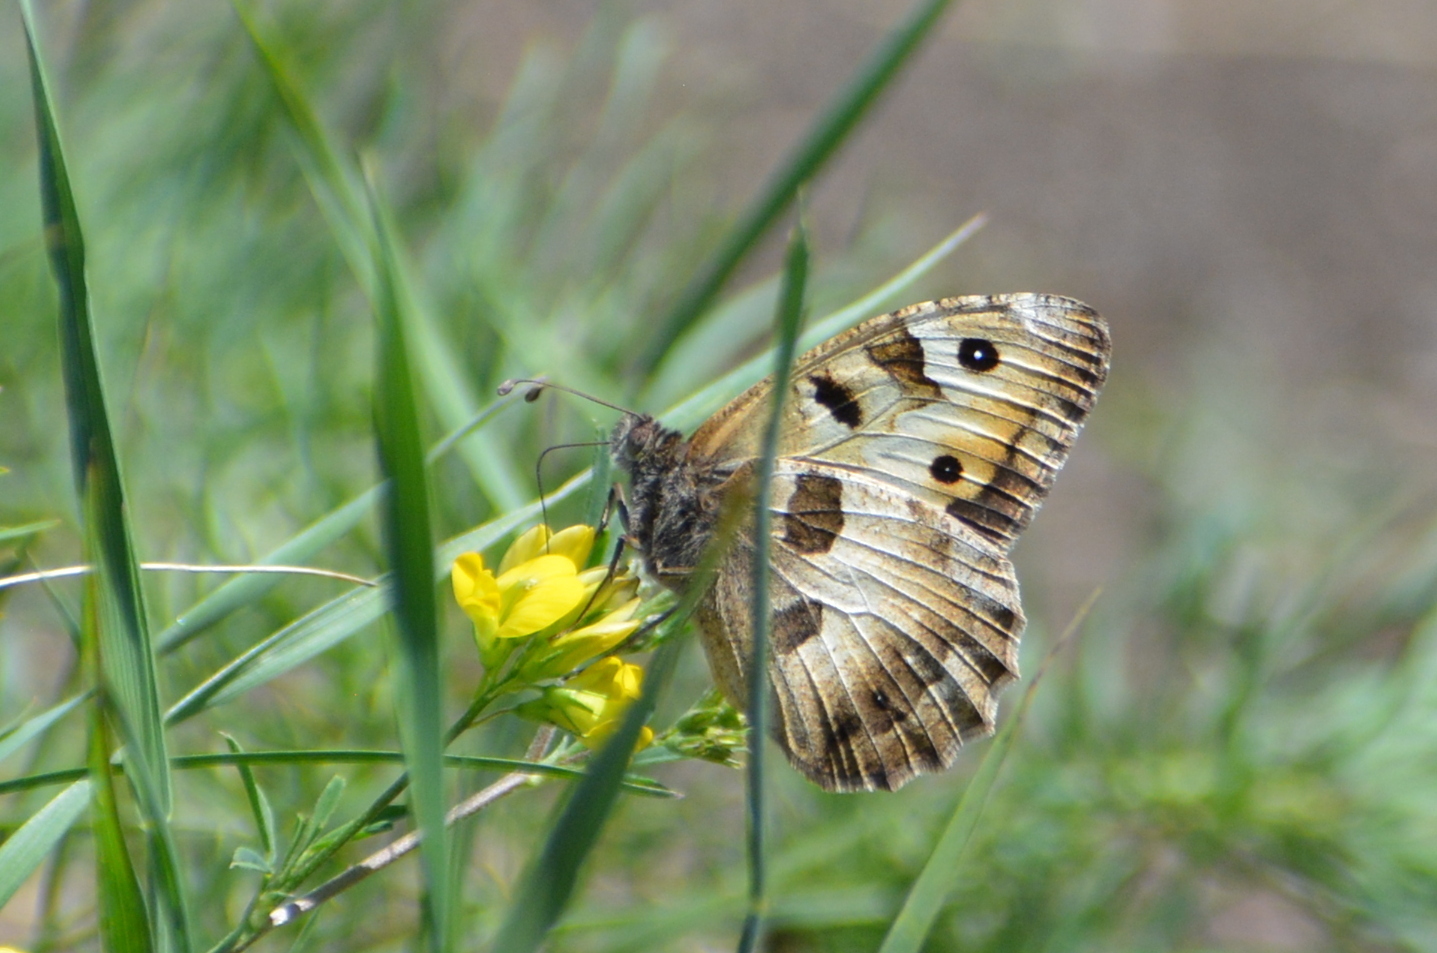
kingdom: Animalia
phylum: Arthropoda
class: Insecta
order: Lepidoptera
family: Nymphalidae
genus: Satyrus
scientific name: Satyrus briseis
